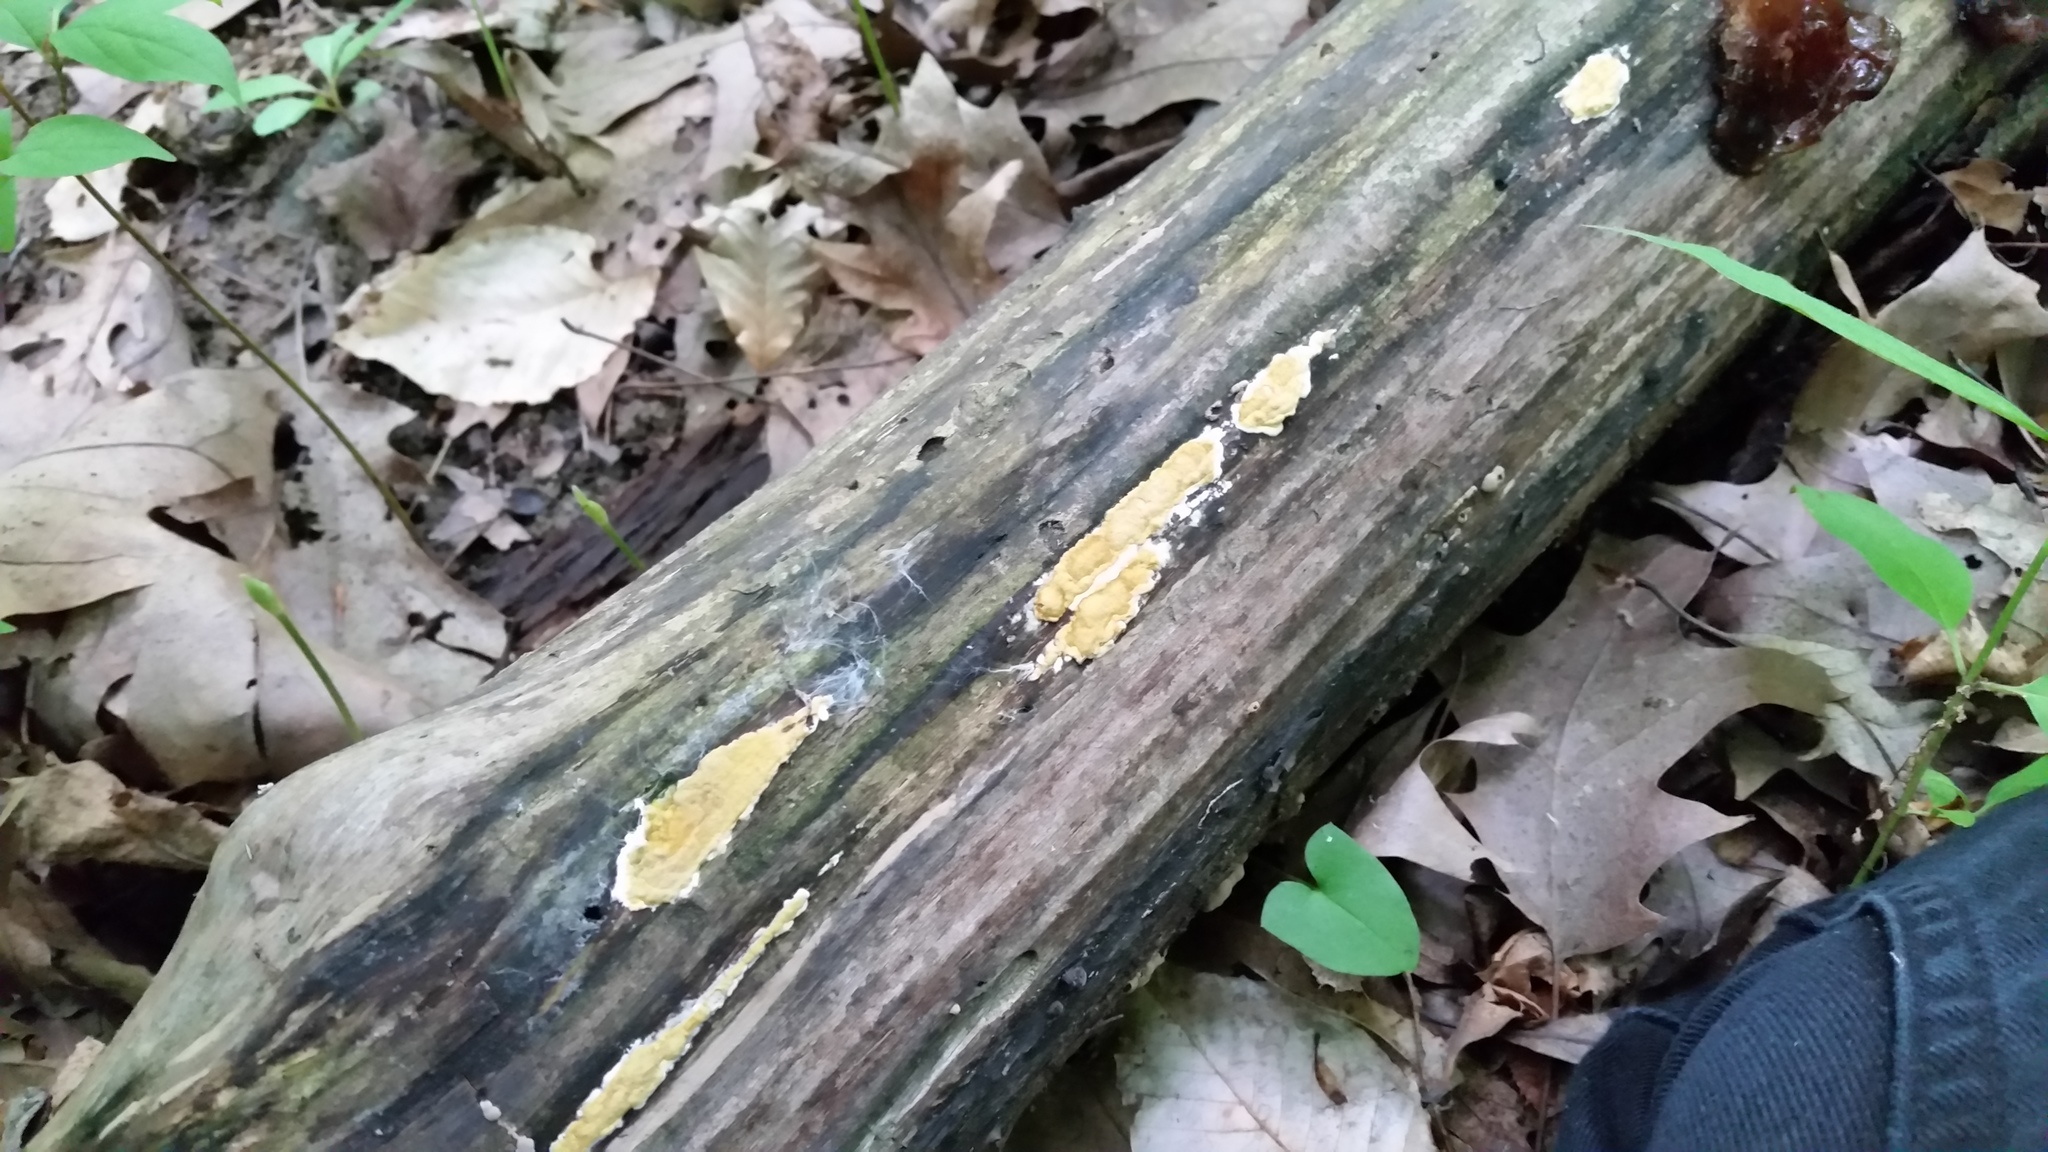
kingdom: Fungi
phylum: Ascomycota
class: Sordariomycetes
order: Hypocreales
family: Hypocreaceae
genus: Trichoderma
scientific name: Trichoderma sulphureum
